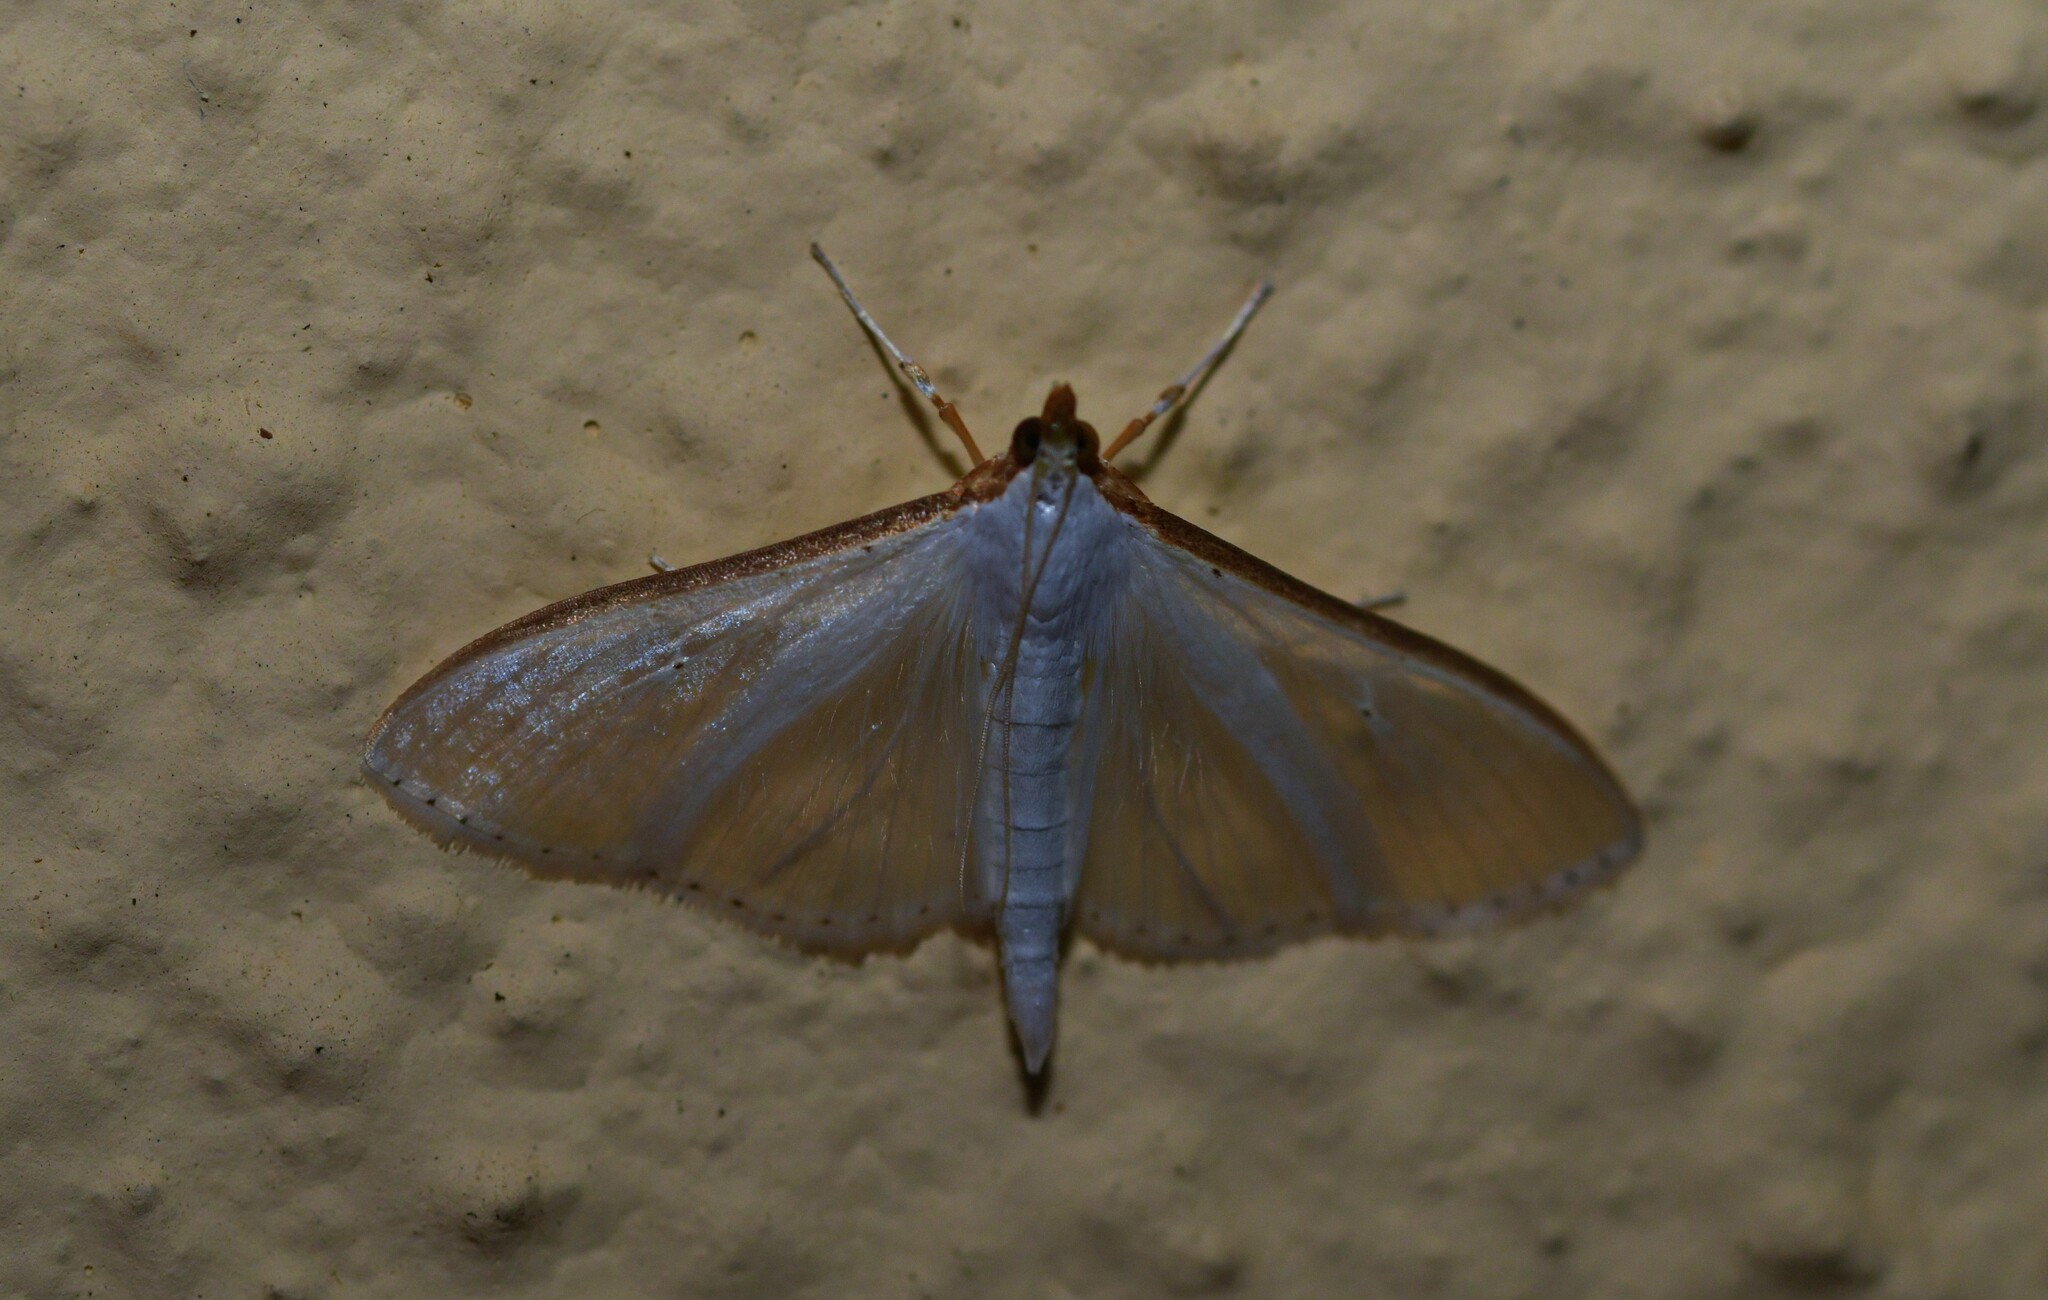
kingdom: Animalia
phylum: Arthropoda
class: Insecta
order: Lepidoptera
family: Crambidae
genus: Palpita
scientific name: Palpita vitrealis
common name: Olive-tree pearl
